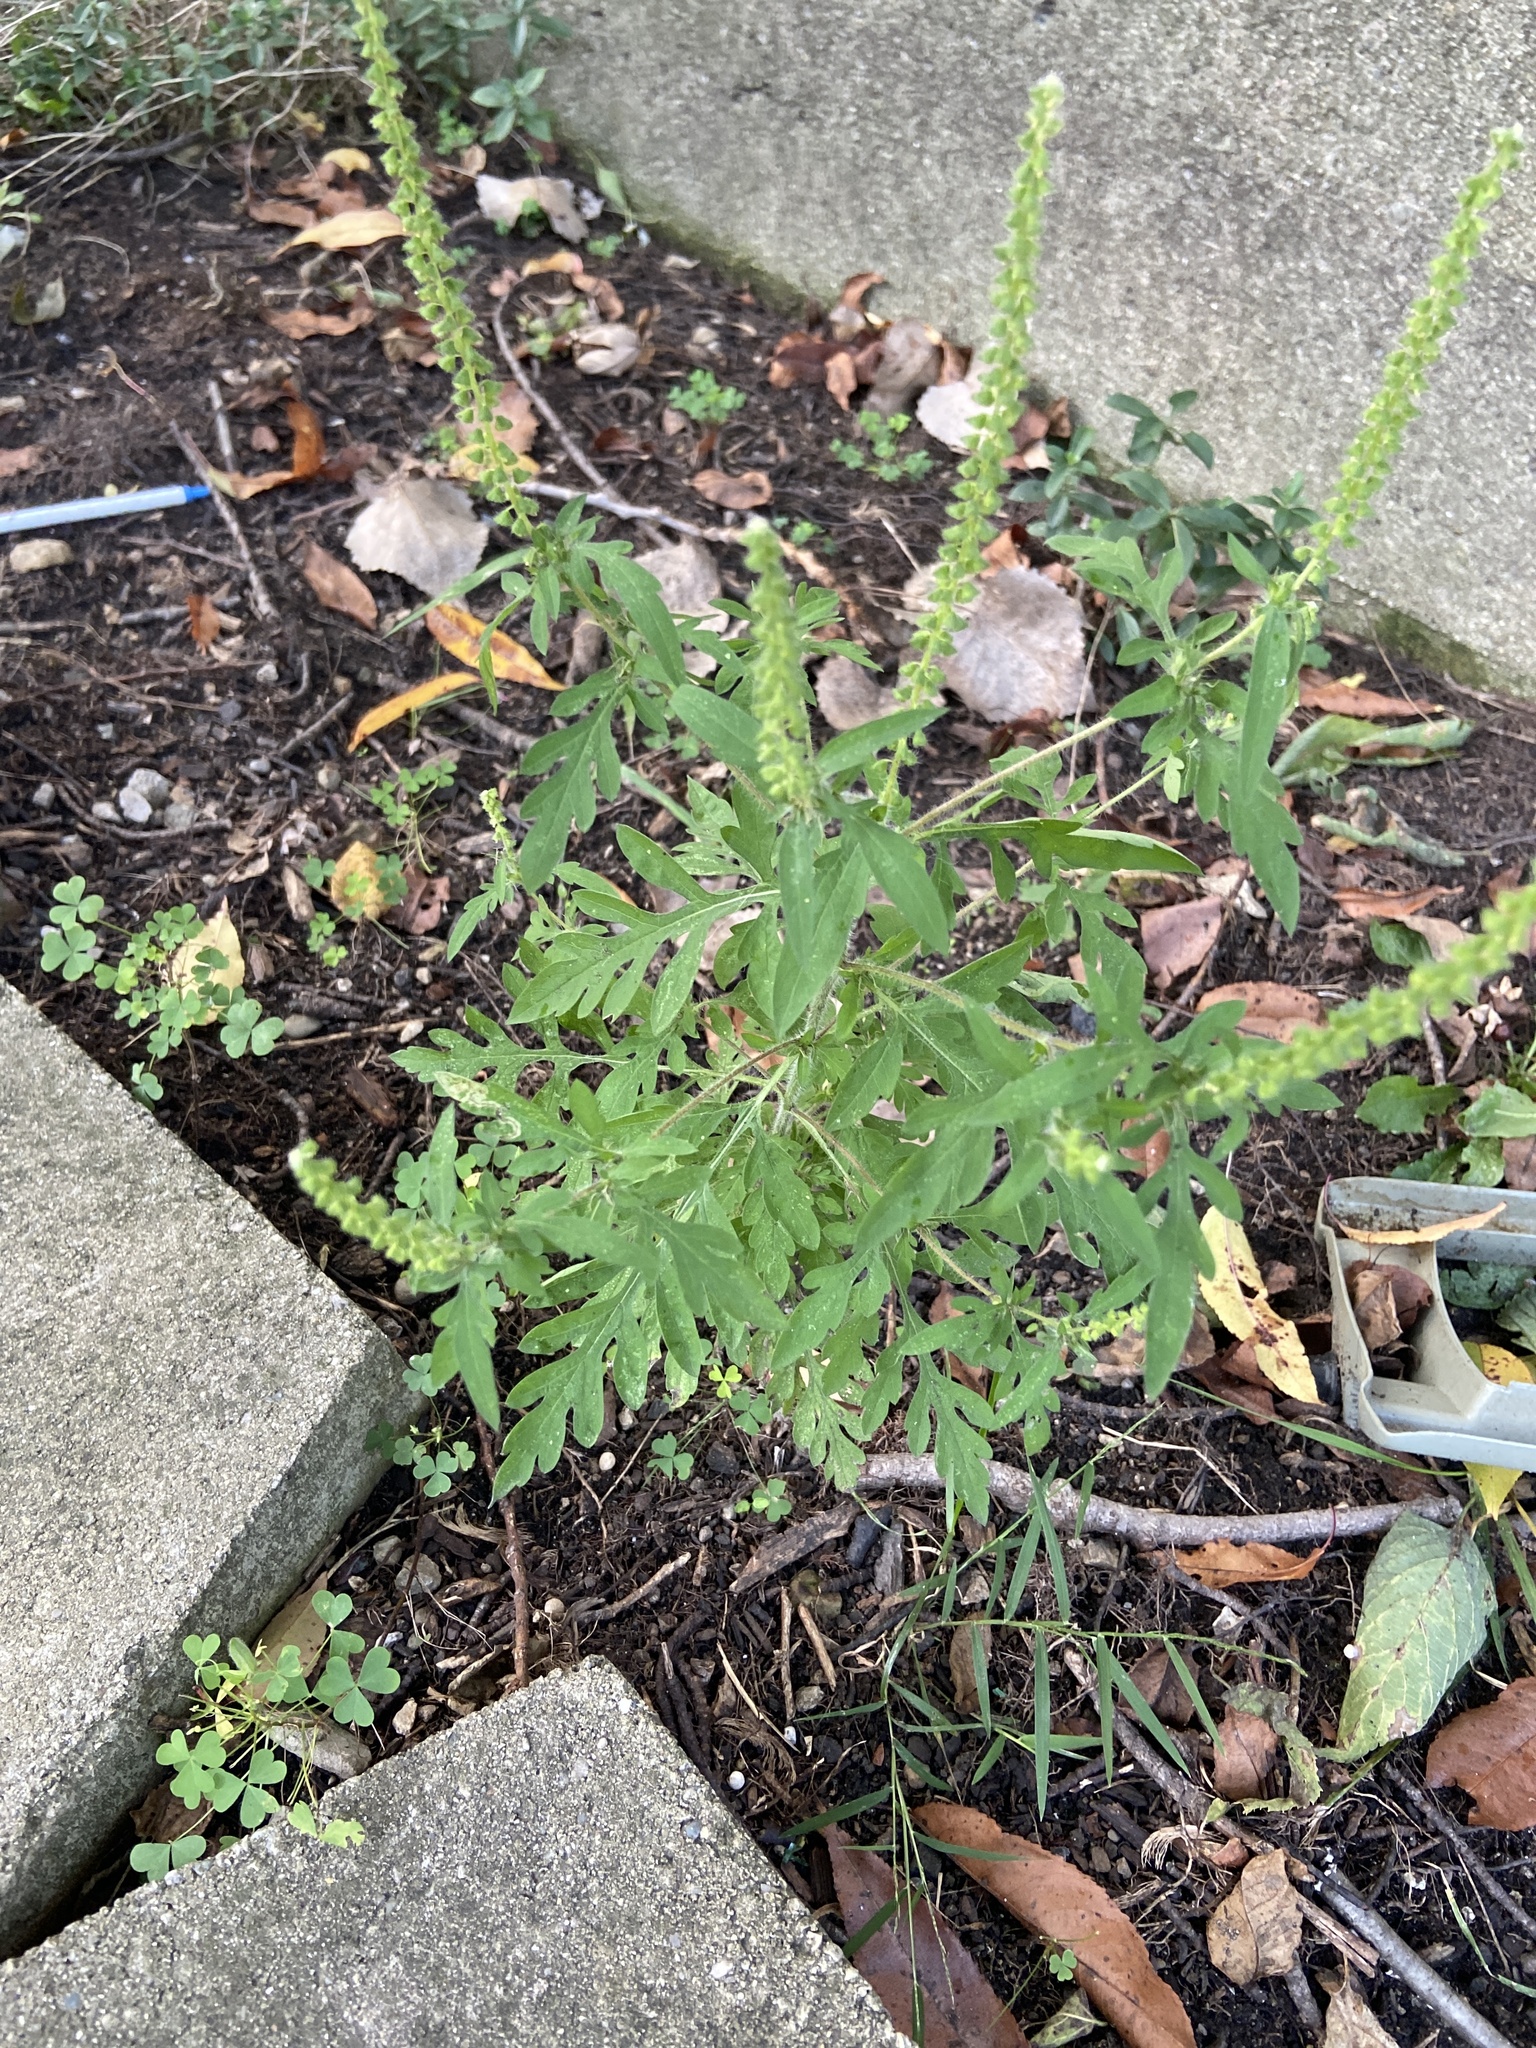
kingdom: Plantae
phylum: Tracheophyta
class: Magnoliopsida
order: Asterales
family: Asteraceae
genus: Ambrosia
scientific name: Ambrosia artemisiifolia
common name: Annual ragweed
